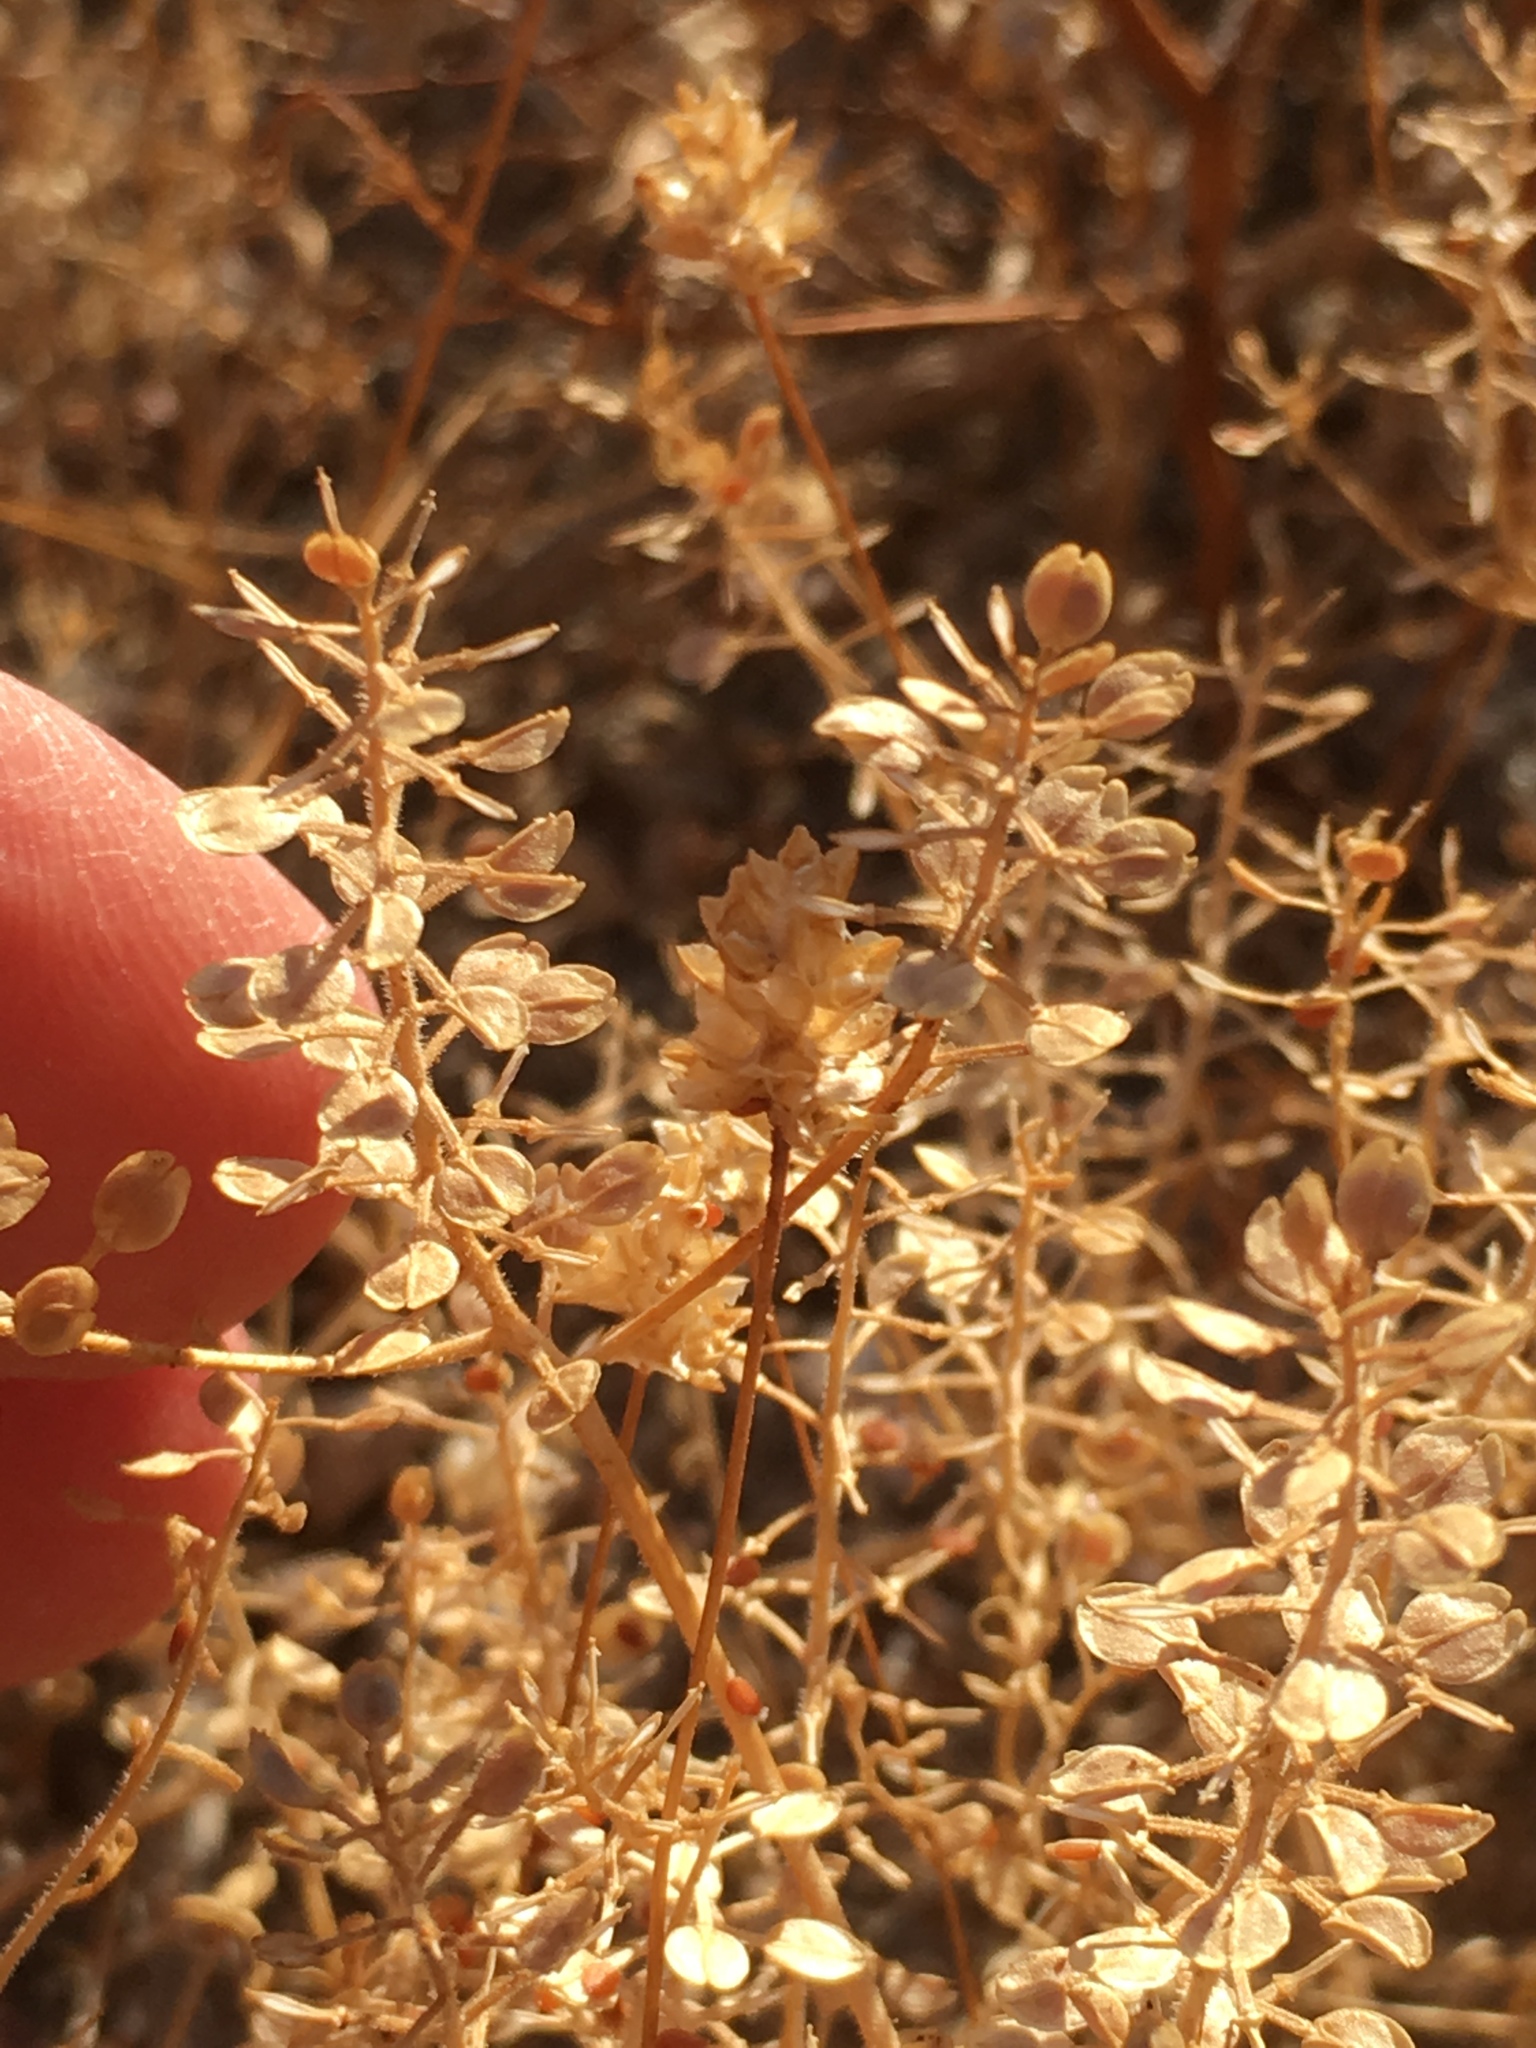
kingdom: Plantae
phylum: Tracheophyta
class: Magnoliopsida
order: Brassicales
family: Brassicaceae
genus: Lepidium
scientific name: Lepidium lasiocarpum
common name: Hairy-pod pepperwort
